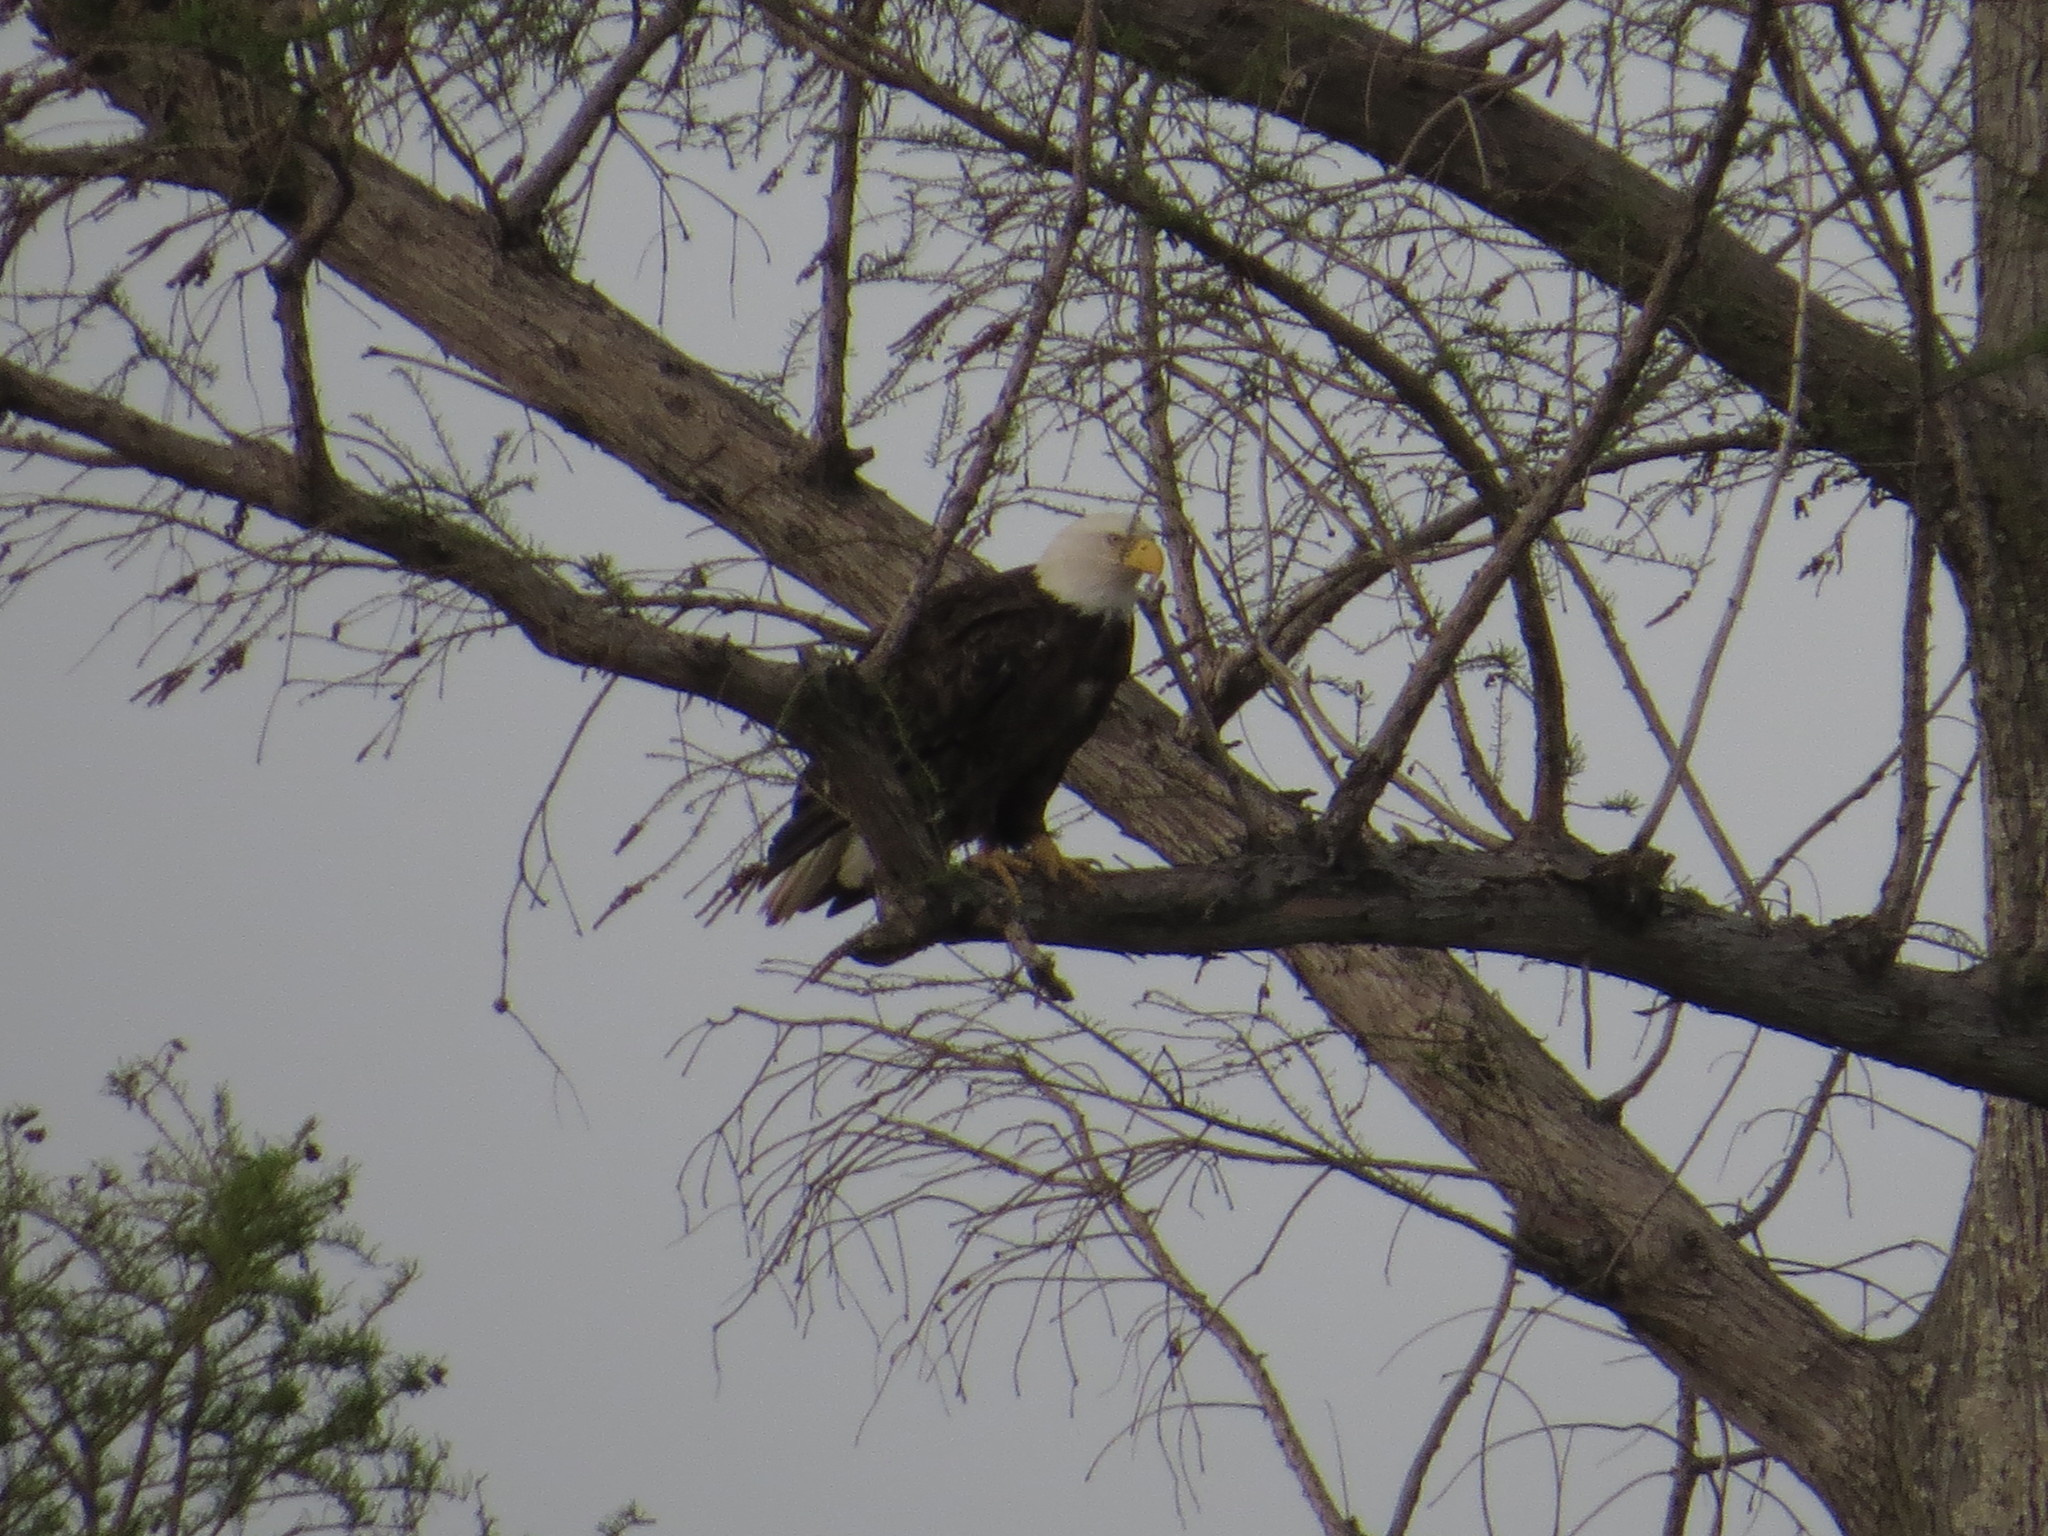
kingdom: Animalia
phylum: Chordata
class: Aves
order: Accipitriformes
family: Accipitridae
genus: Haliaeetus
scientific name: Haliaeetus leucocephalus
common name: Bald eagle
